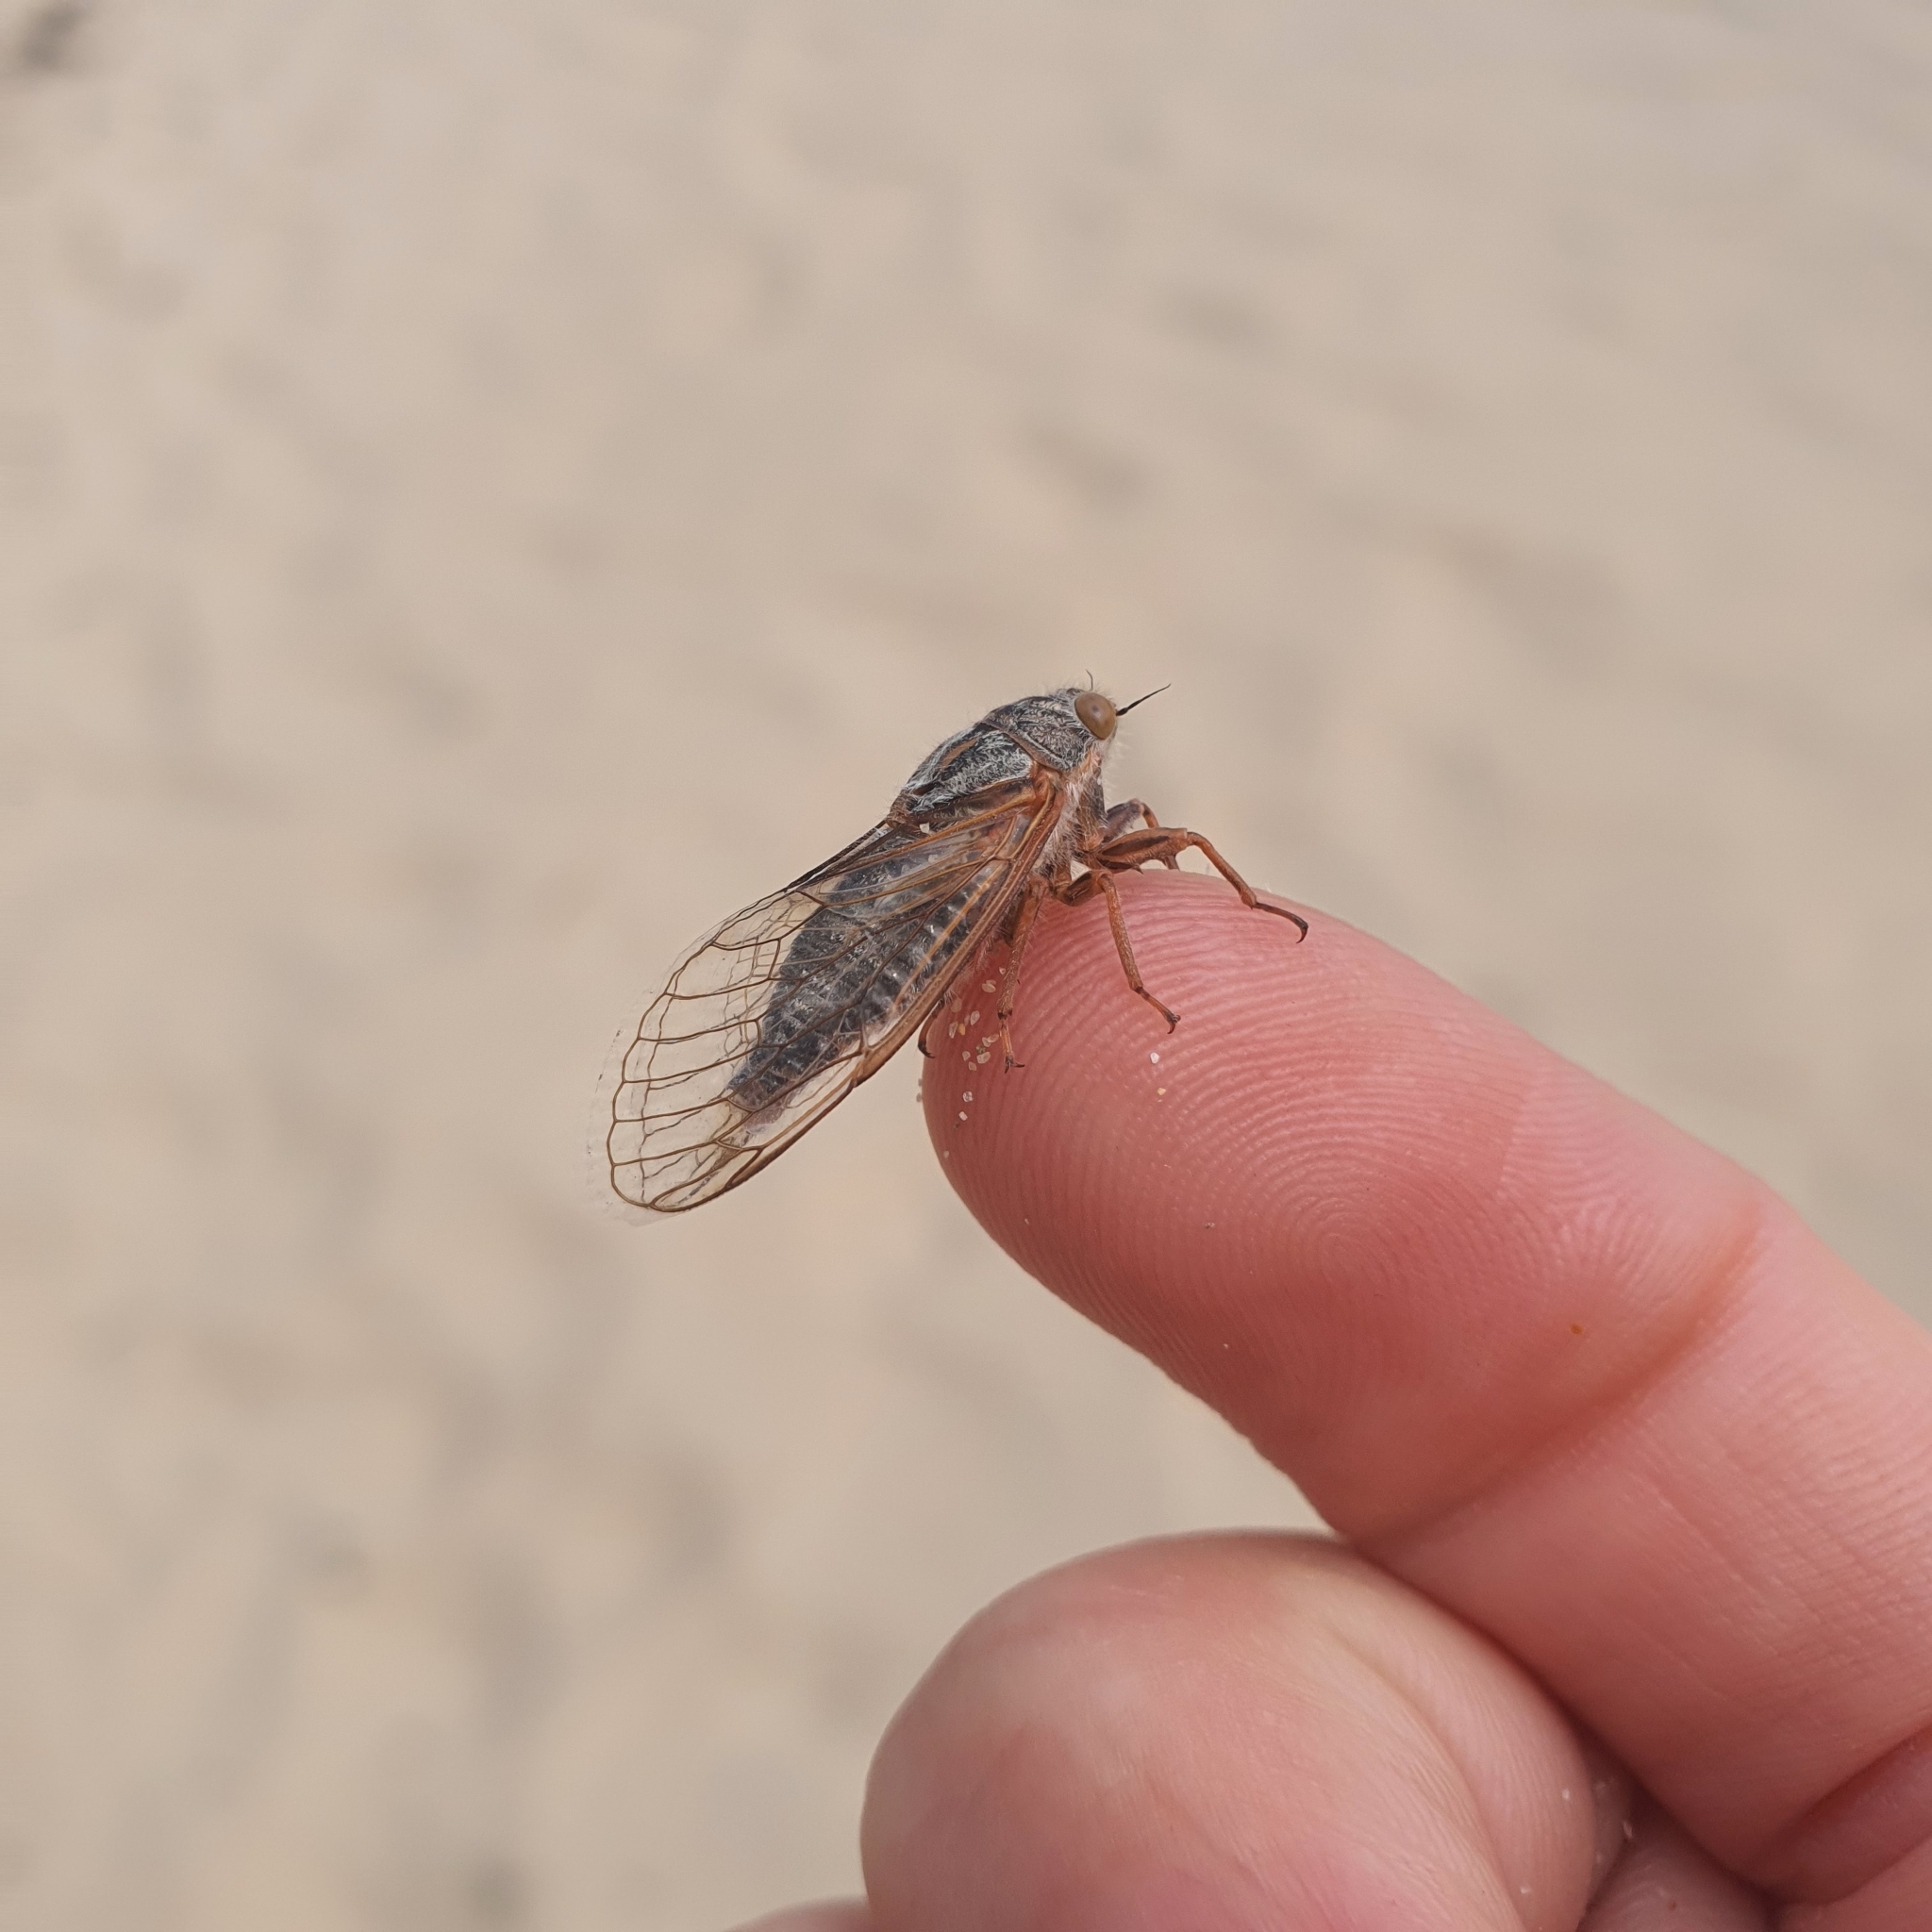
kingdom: Animalia
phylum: Arthropoda
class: Insecta
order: Hemiptera
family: Cicadidae
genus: Sylphoides
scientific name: Sylphoides arenaria
